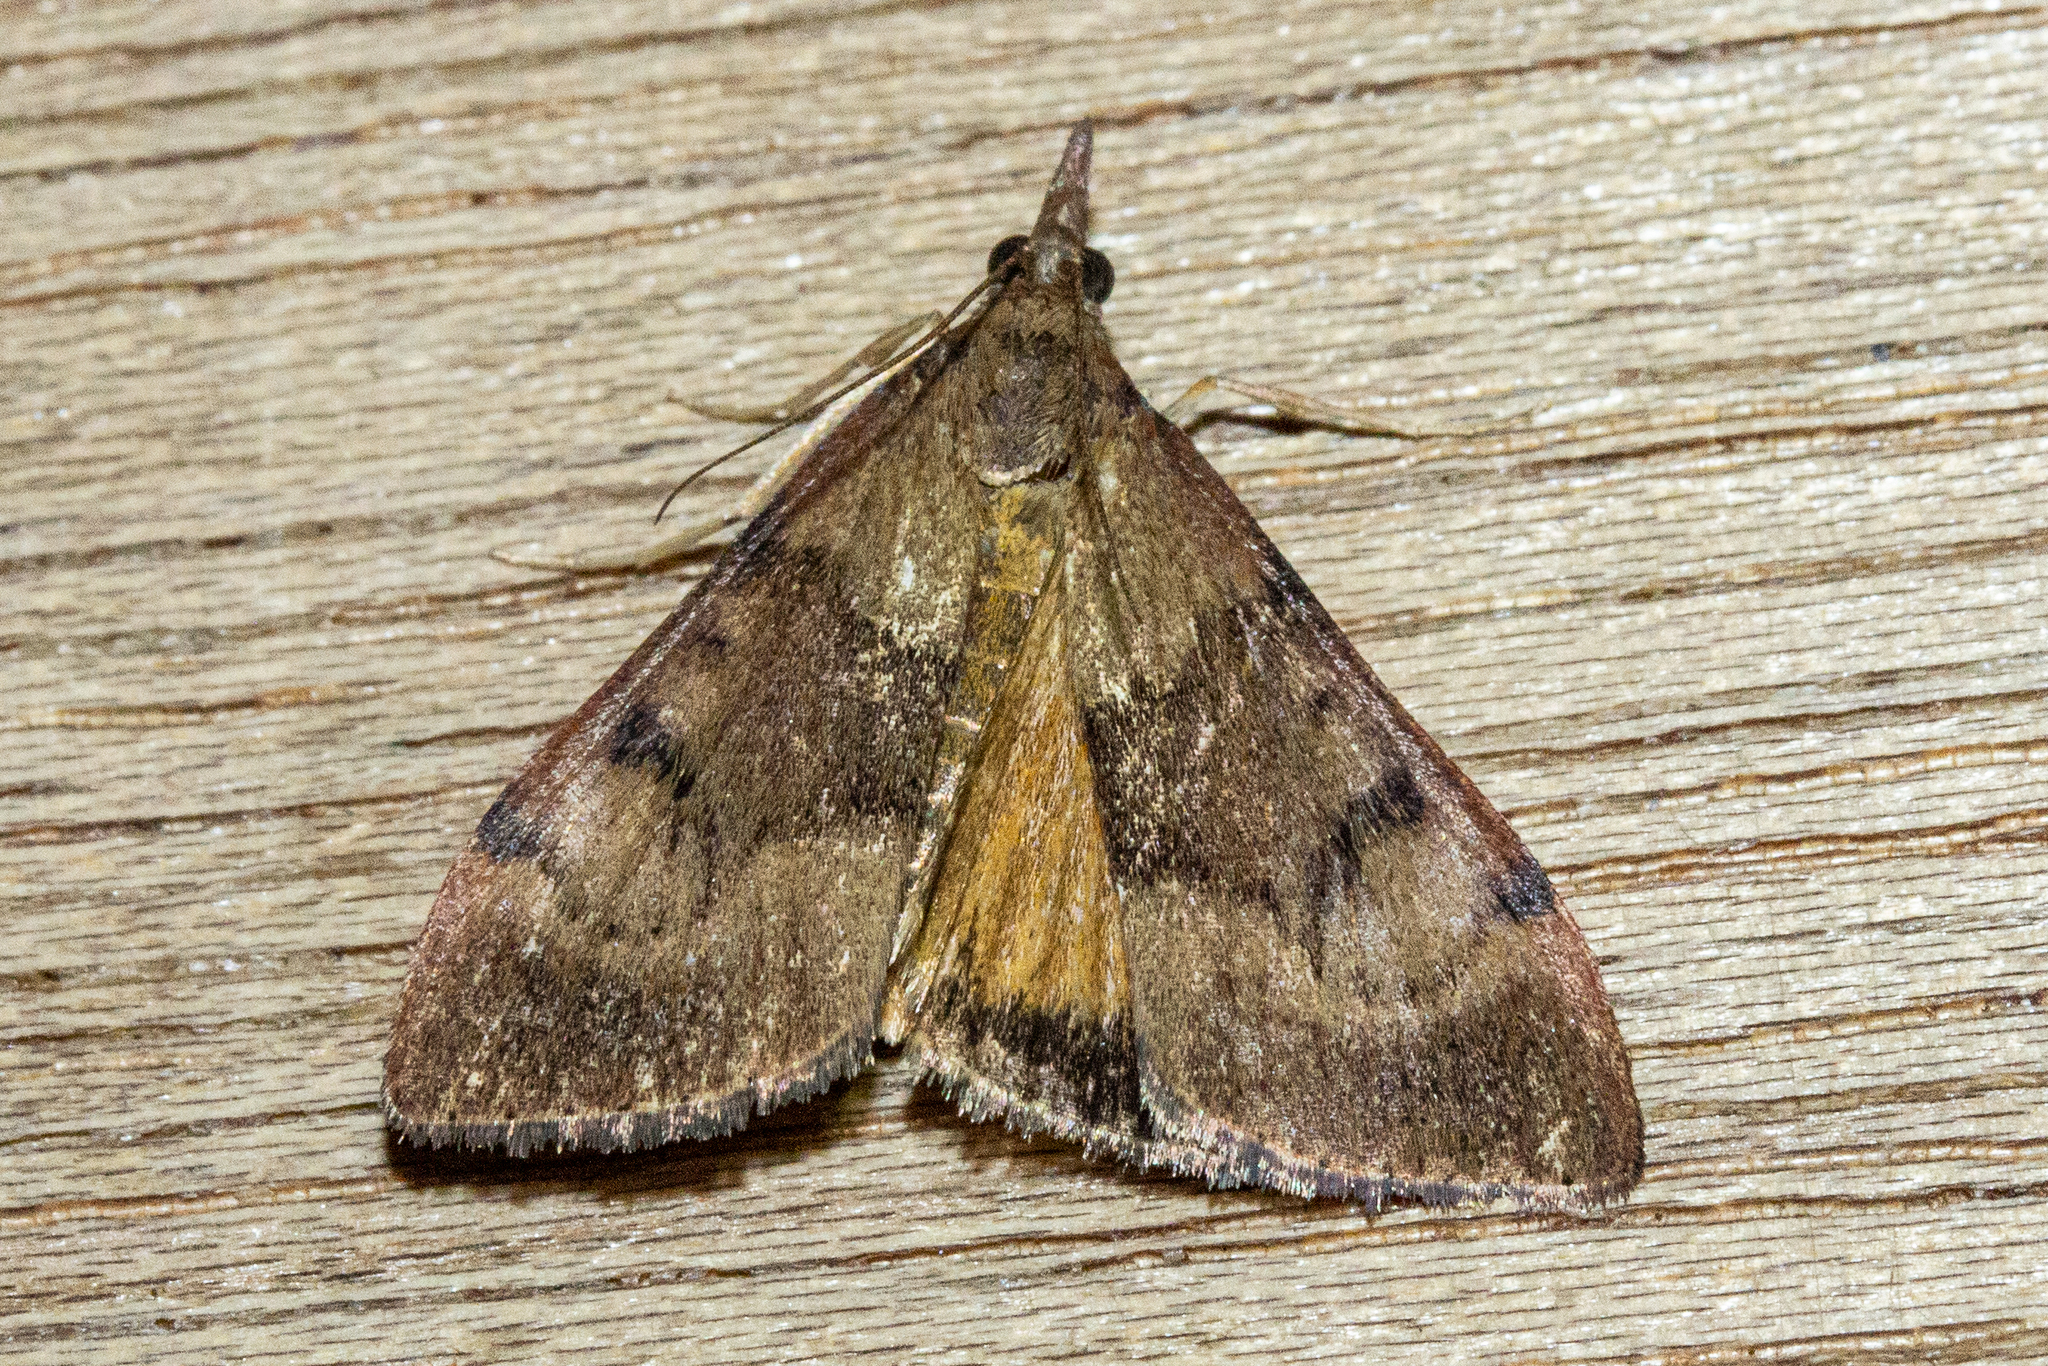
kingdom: Animalia
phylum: Arthropoda
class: Insecta
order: Lepidoptera
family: Crambidae
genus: Uresiphita
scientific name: Uresiphita
